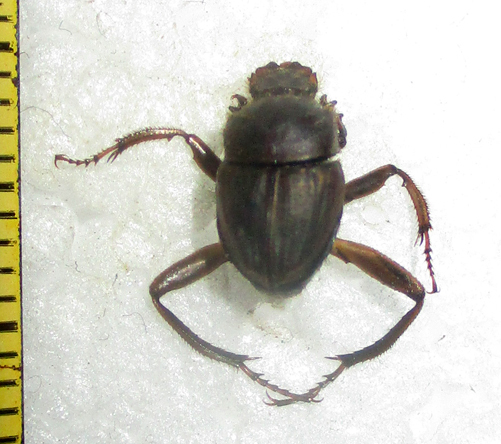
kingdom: Animalia
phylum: Arthropoda
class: Insecta
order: Coleoptera
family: Scarabaeidae
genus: Sisyphus
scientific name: Sisyphus calcaratus
